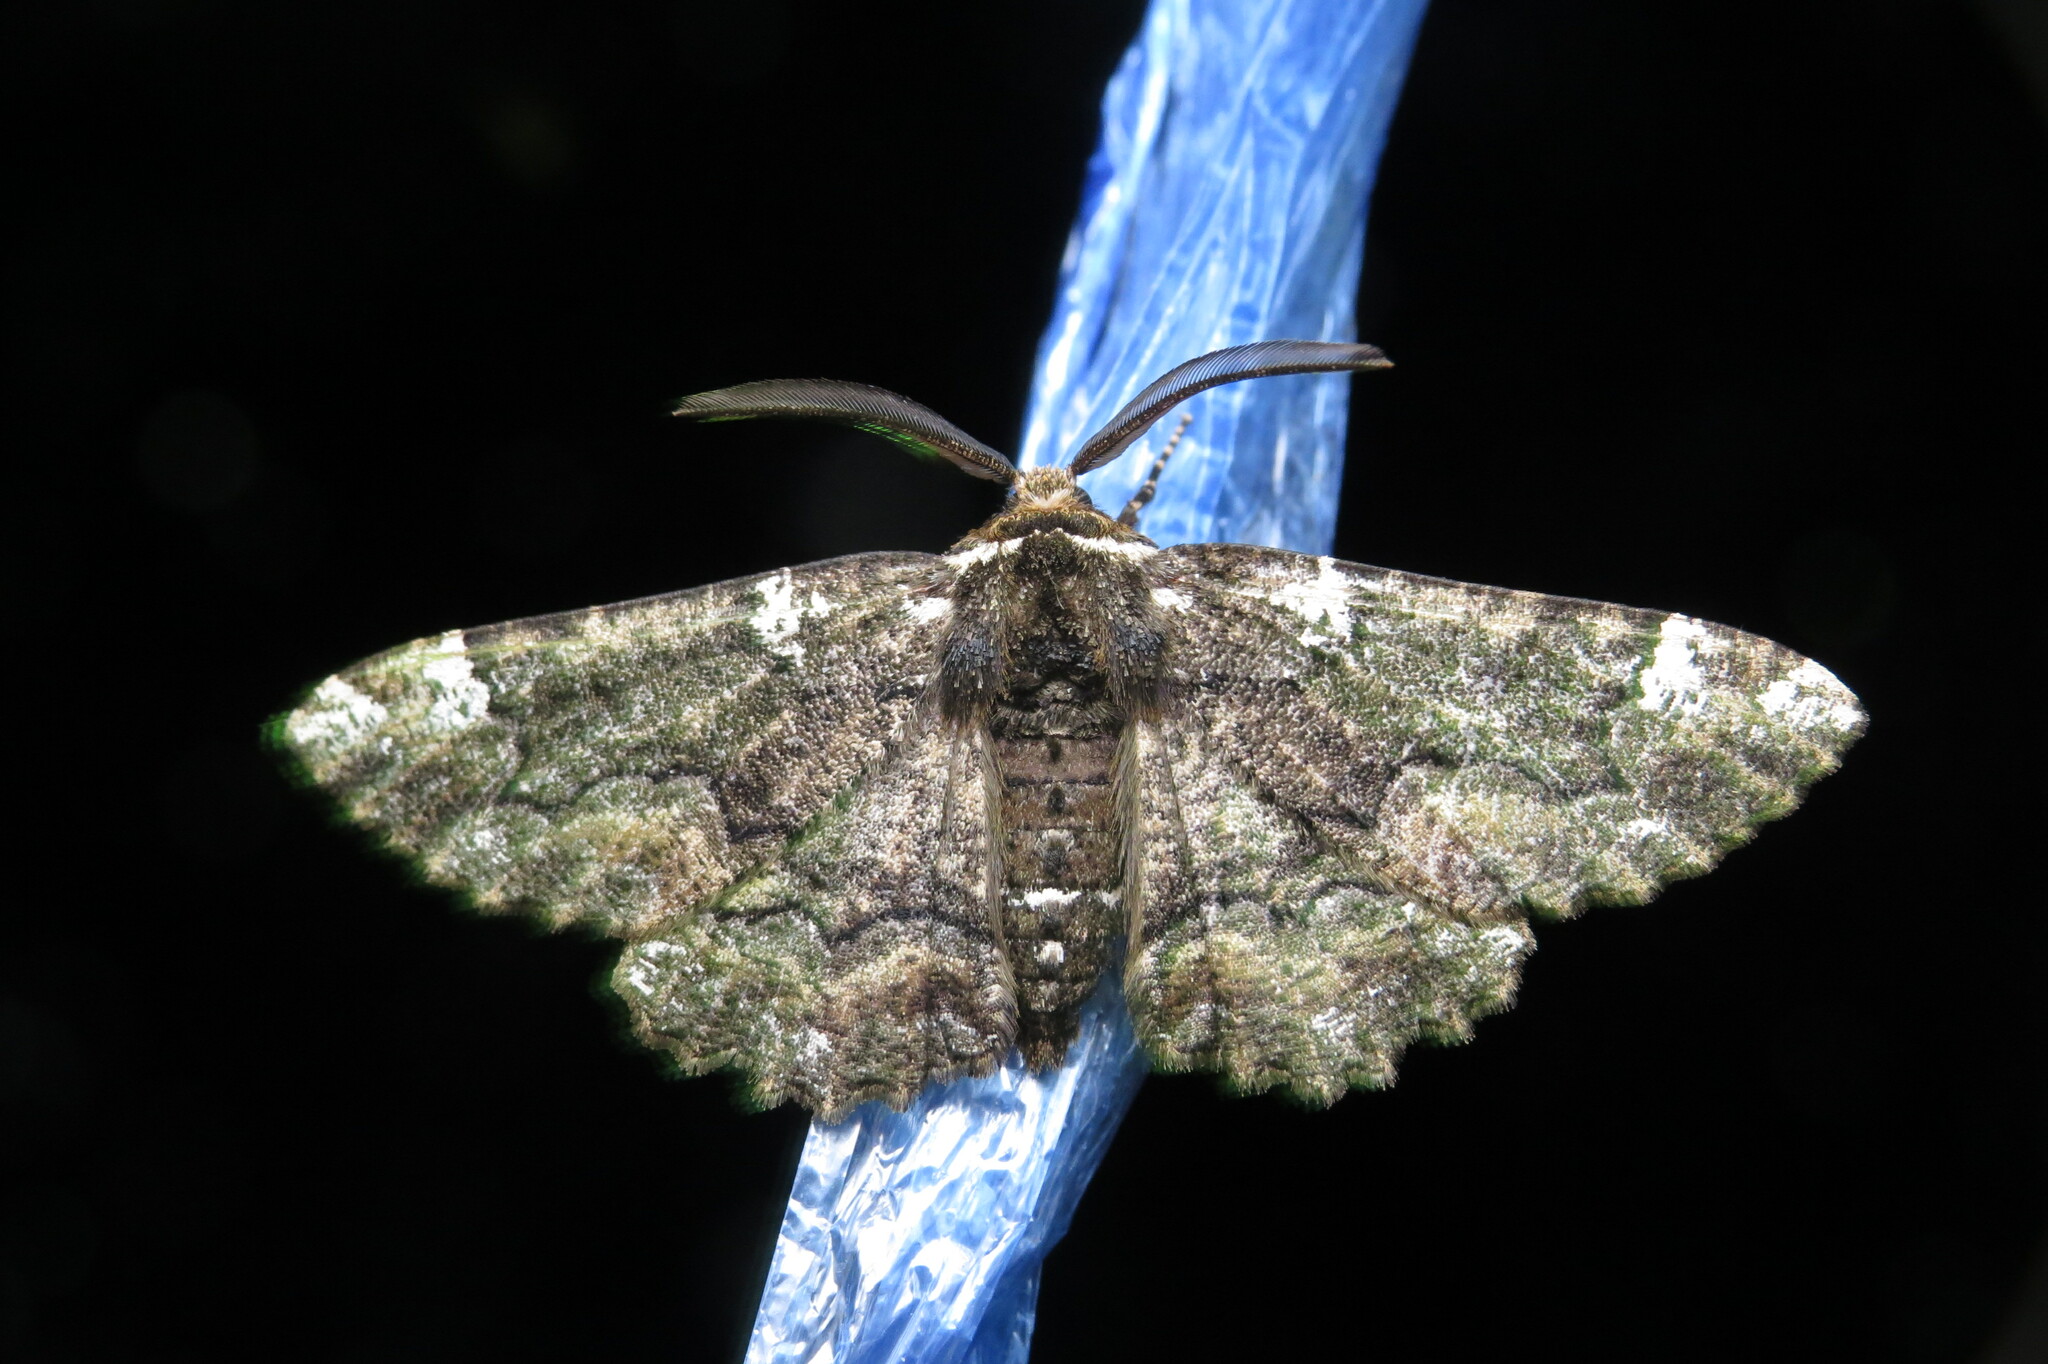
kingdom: Animalia
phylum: Arthropoda
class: Insecta
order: Lepidoptera
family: Geometridae
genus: Phaeoura
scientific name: Phaeoura quernaria
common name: Oak beauty
